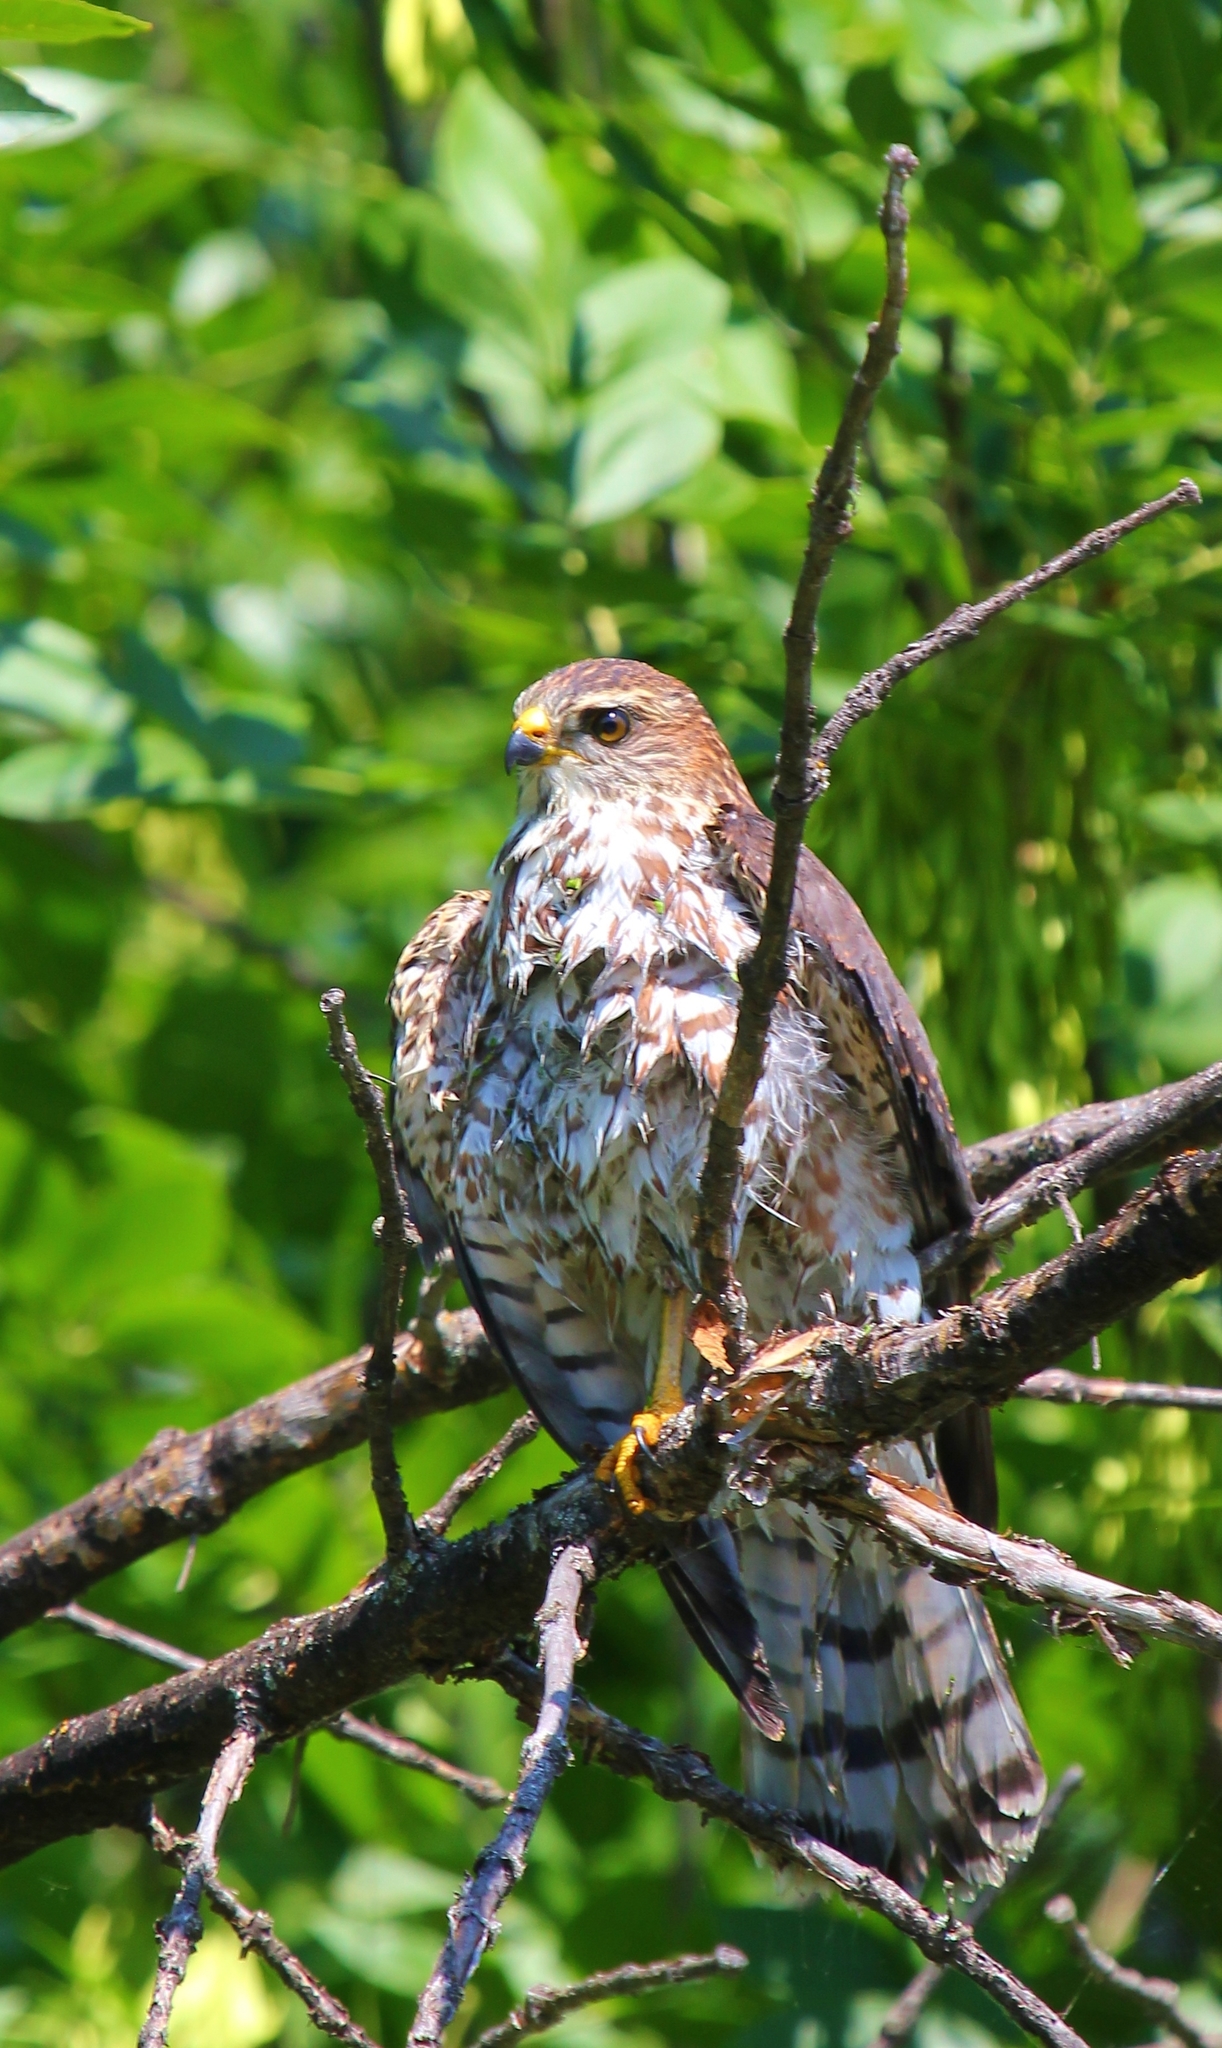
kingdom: Animalia
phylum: Chordata
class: Aves
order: Accipitriformes
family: Accipitridae
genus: Accipiter
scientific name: Accipiter brevipes
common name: Levant sparrowhawk
